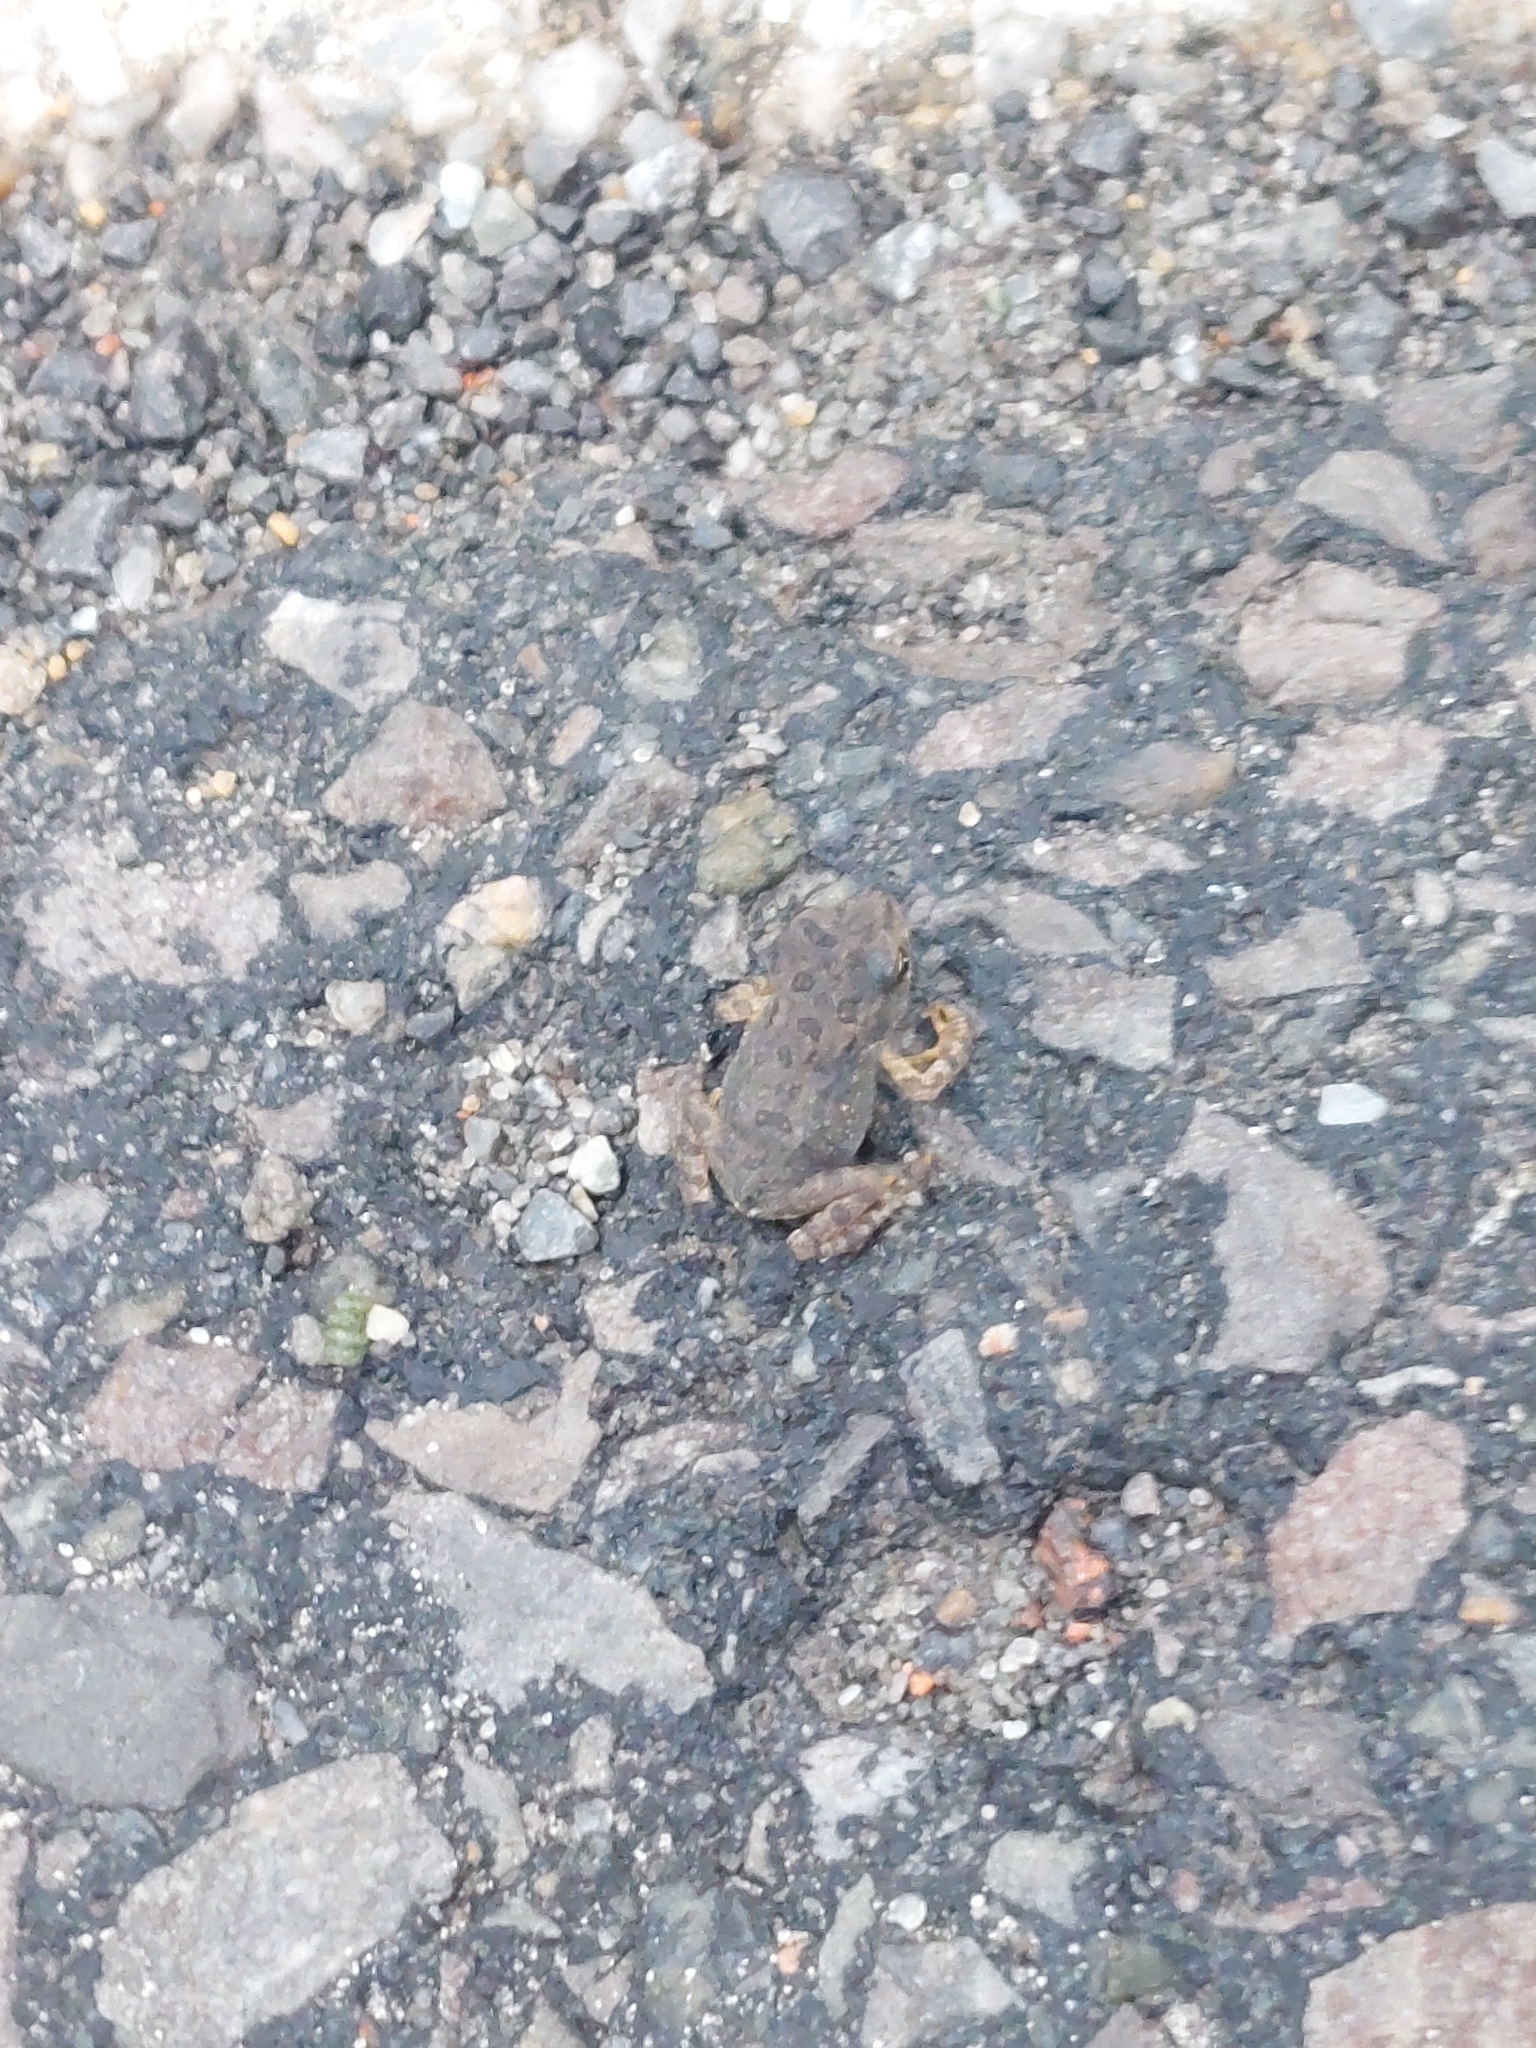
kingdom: Animalia
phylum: Chordata
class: Amphibia
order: Anura
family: Bufonidae
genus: Anaxyrus
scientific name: Anaxyrus americanus
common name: American toad
